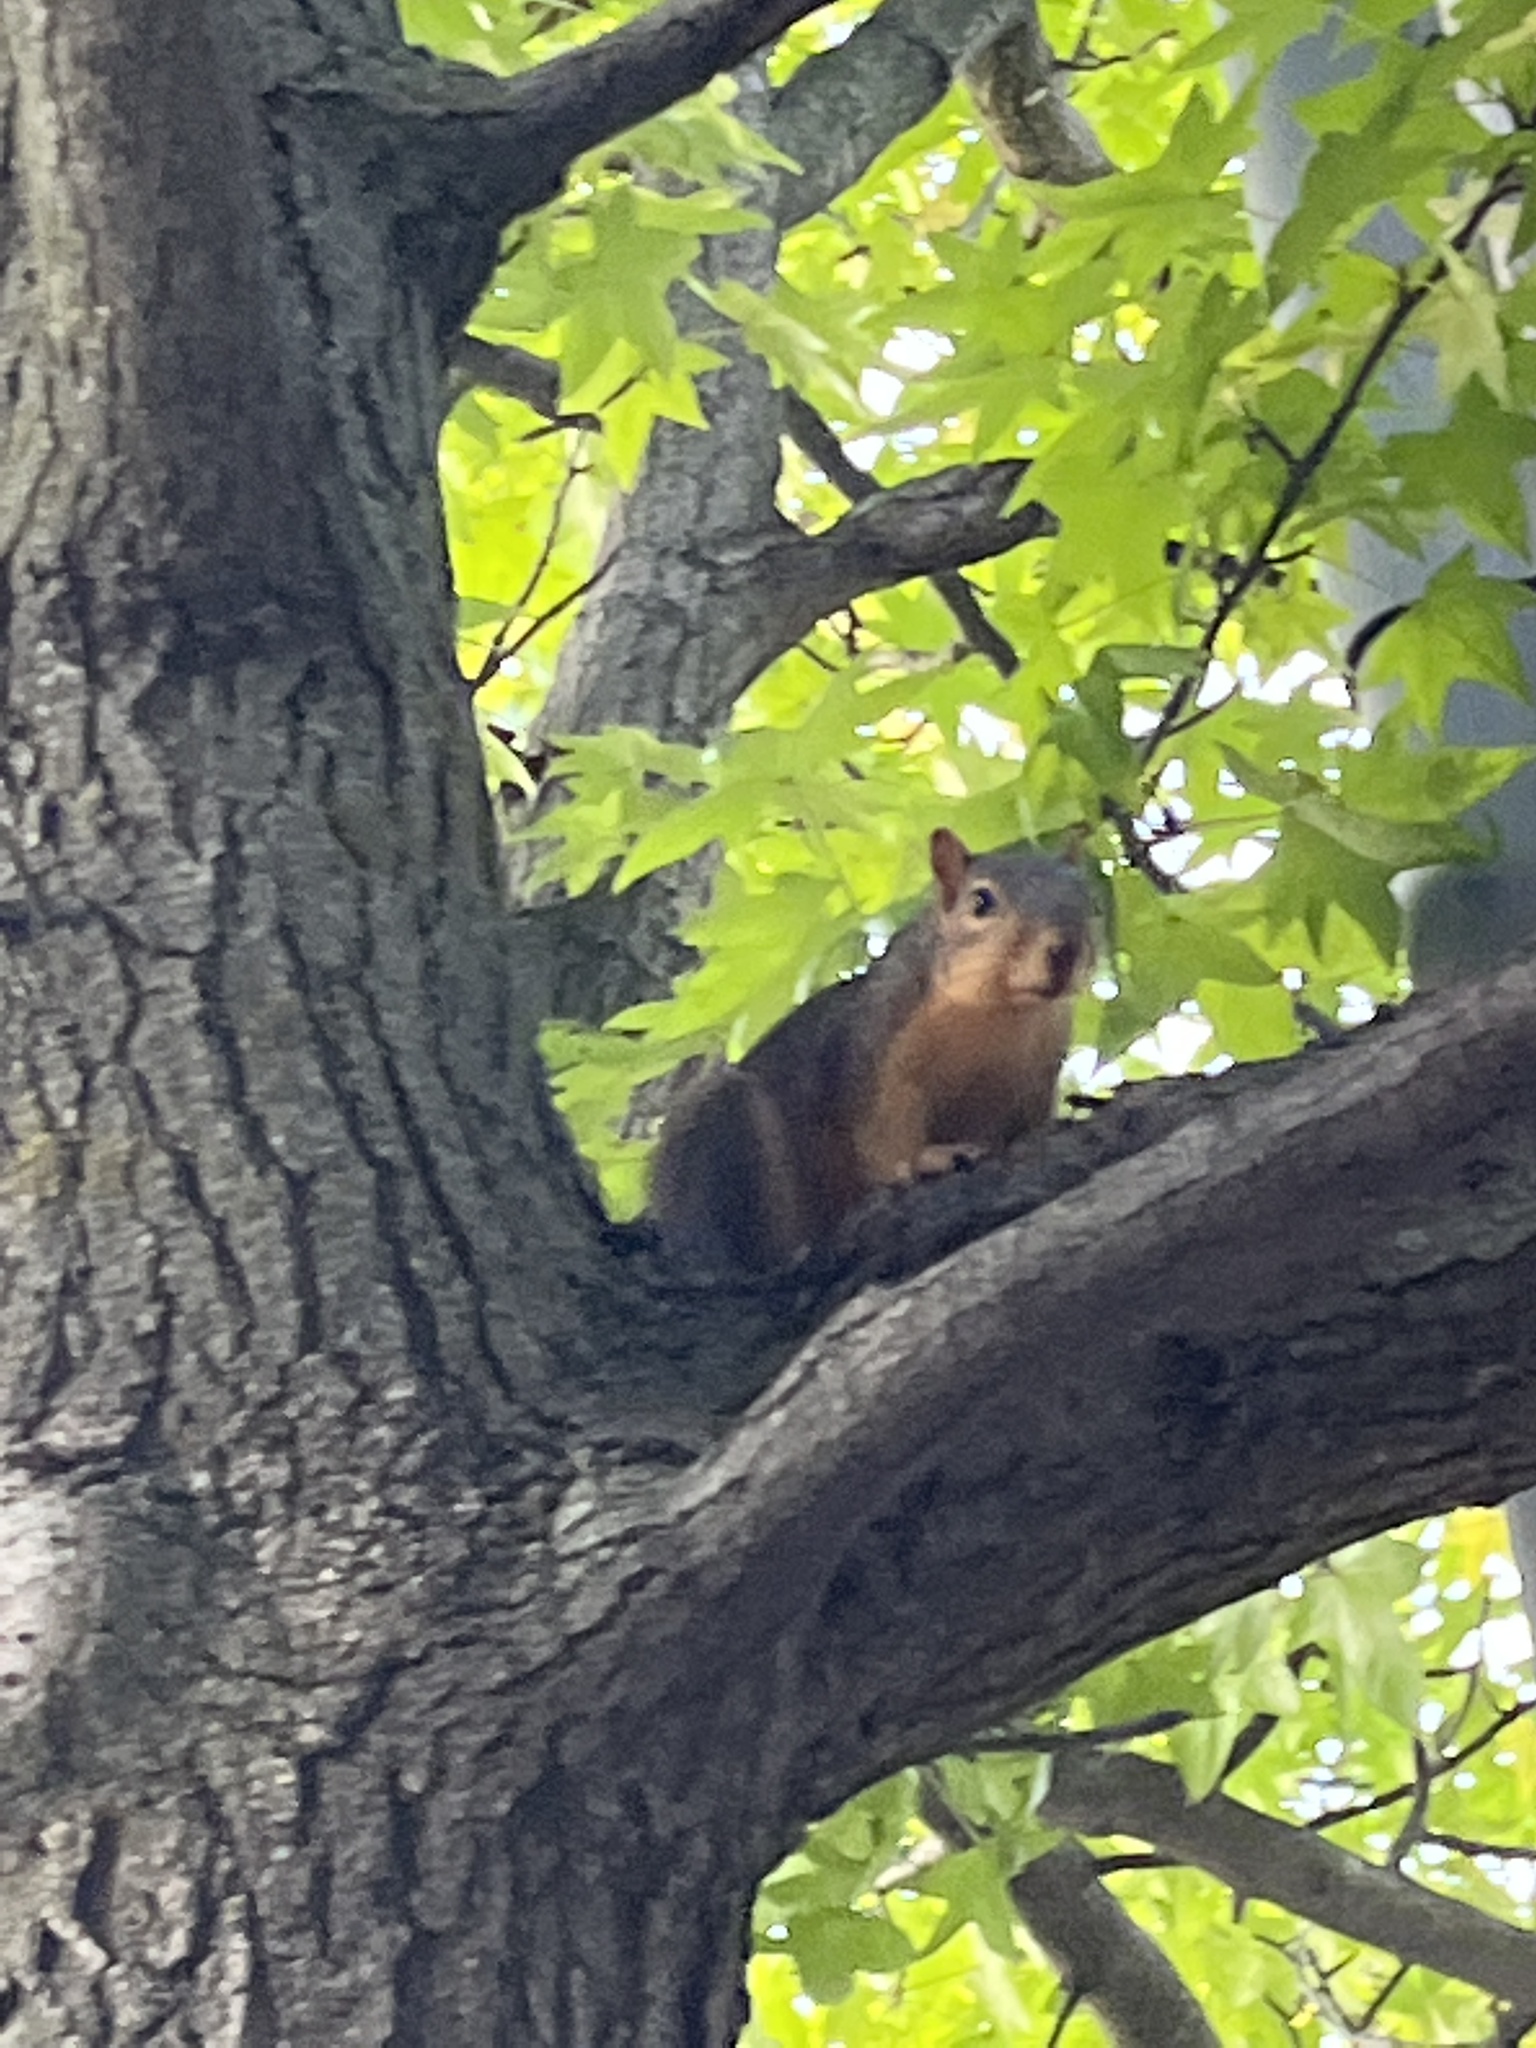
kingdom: Animalia
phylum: Chordata
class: Mammalia
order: Rodentia
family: Sciuridae
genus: Sciurus
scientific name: Sciurus niger
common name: Fox squirrel
